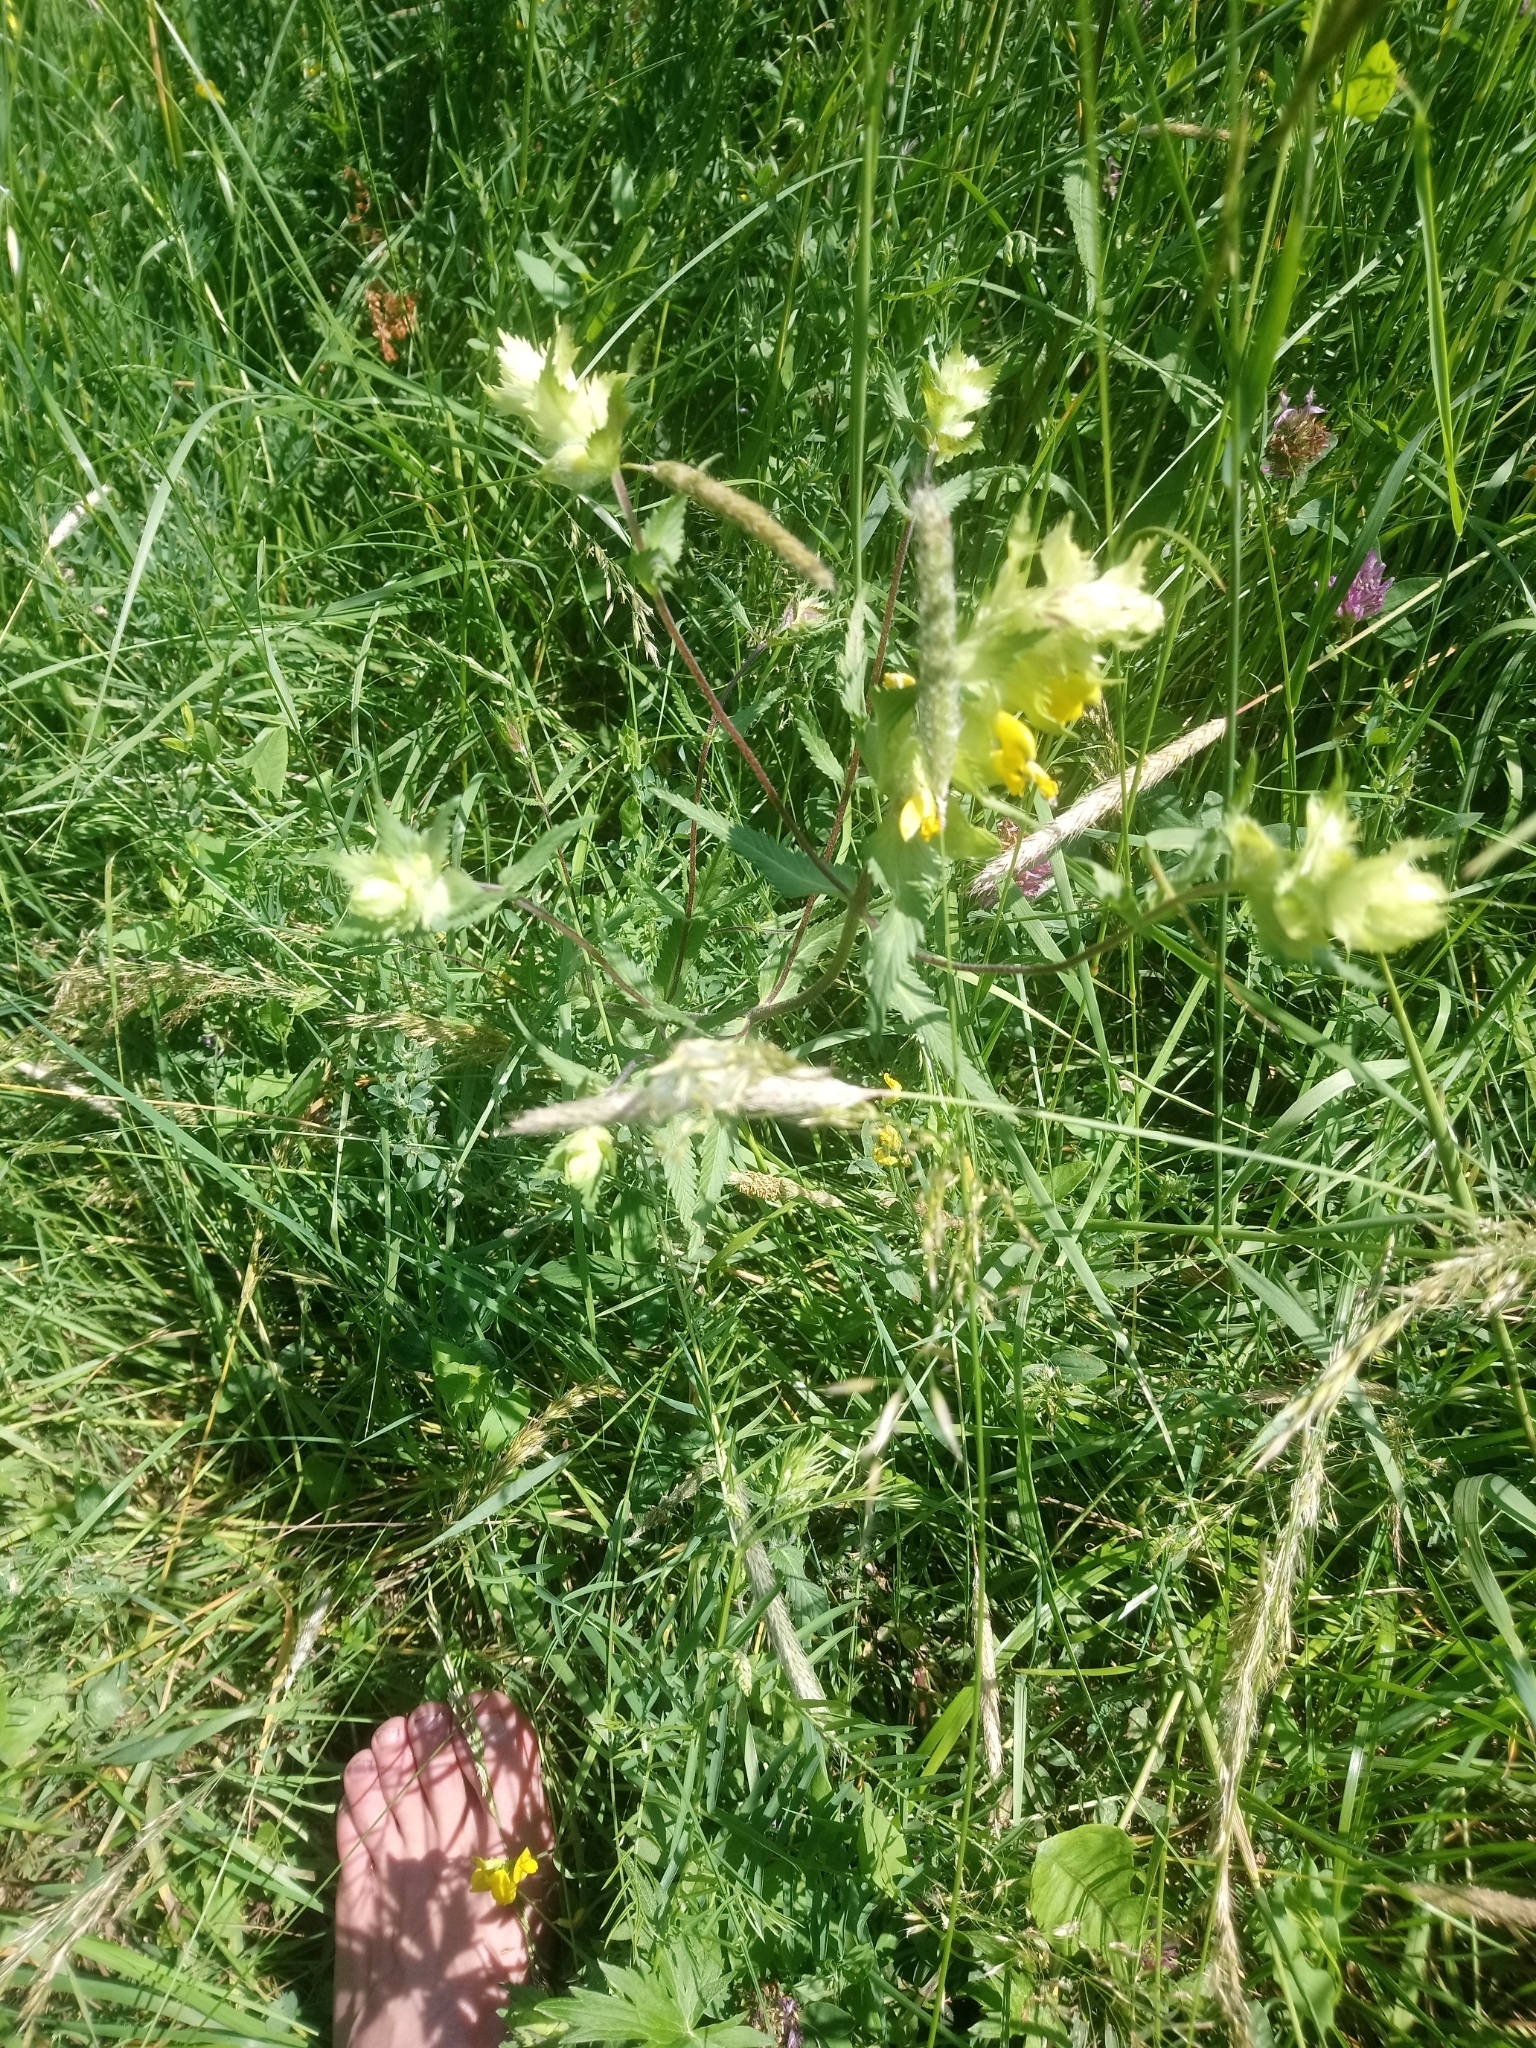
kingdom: Plantae
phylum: Tracheophyta
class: Magnoliopsida
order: Lamiales
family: Orobanchaceae
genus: Rhinanthus
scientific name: Rhinanthus alectorolophus
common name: Greater yellow-rattle
